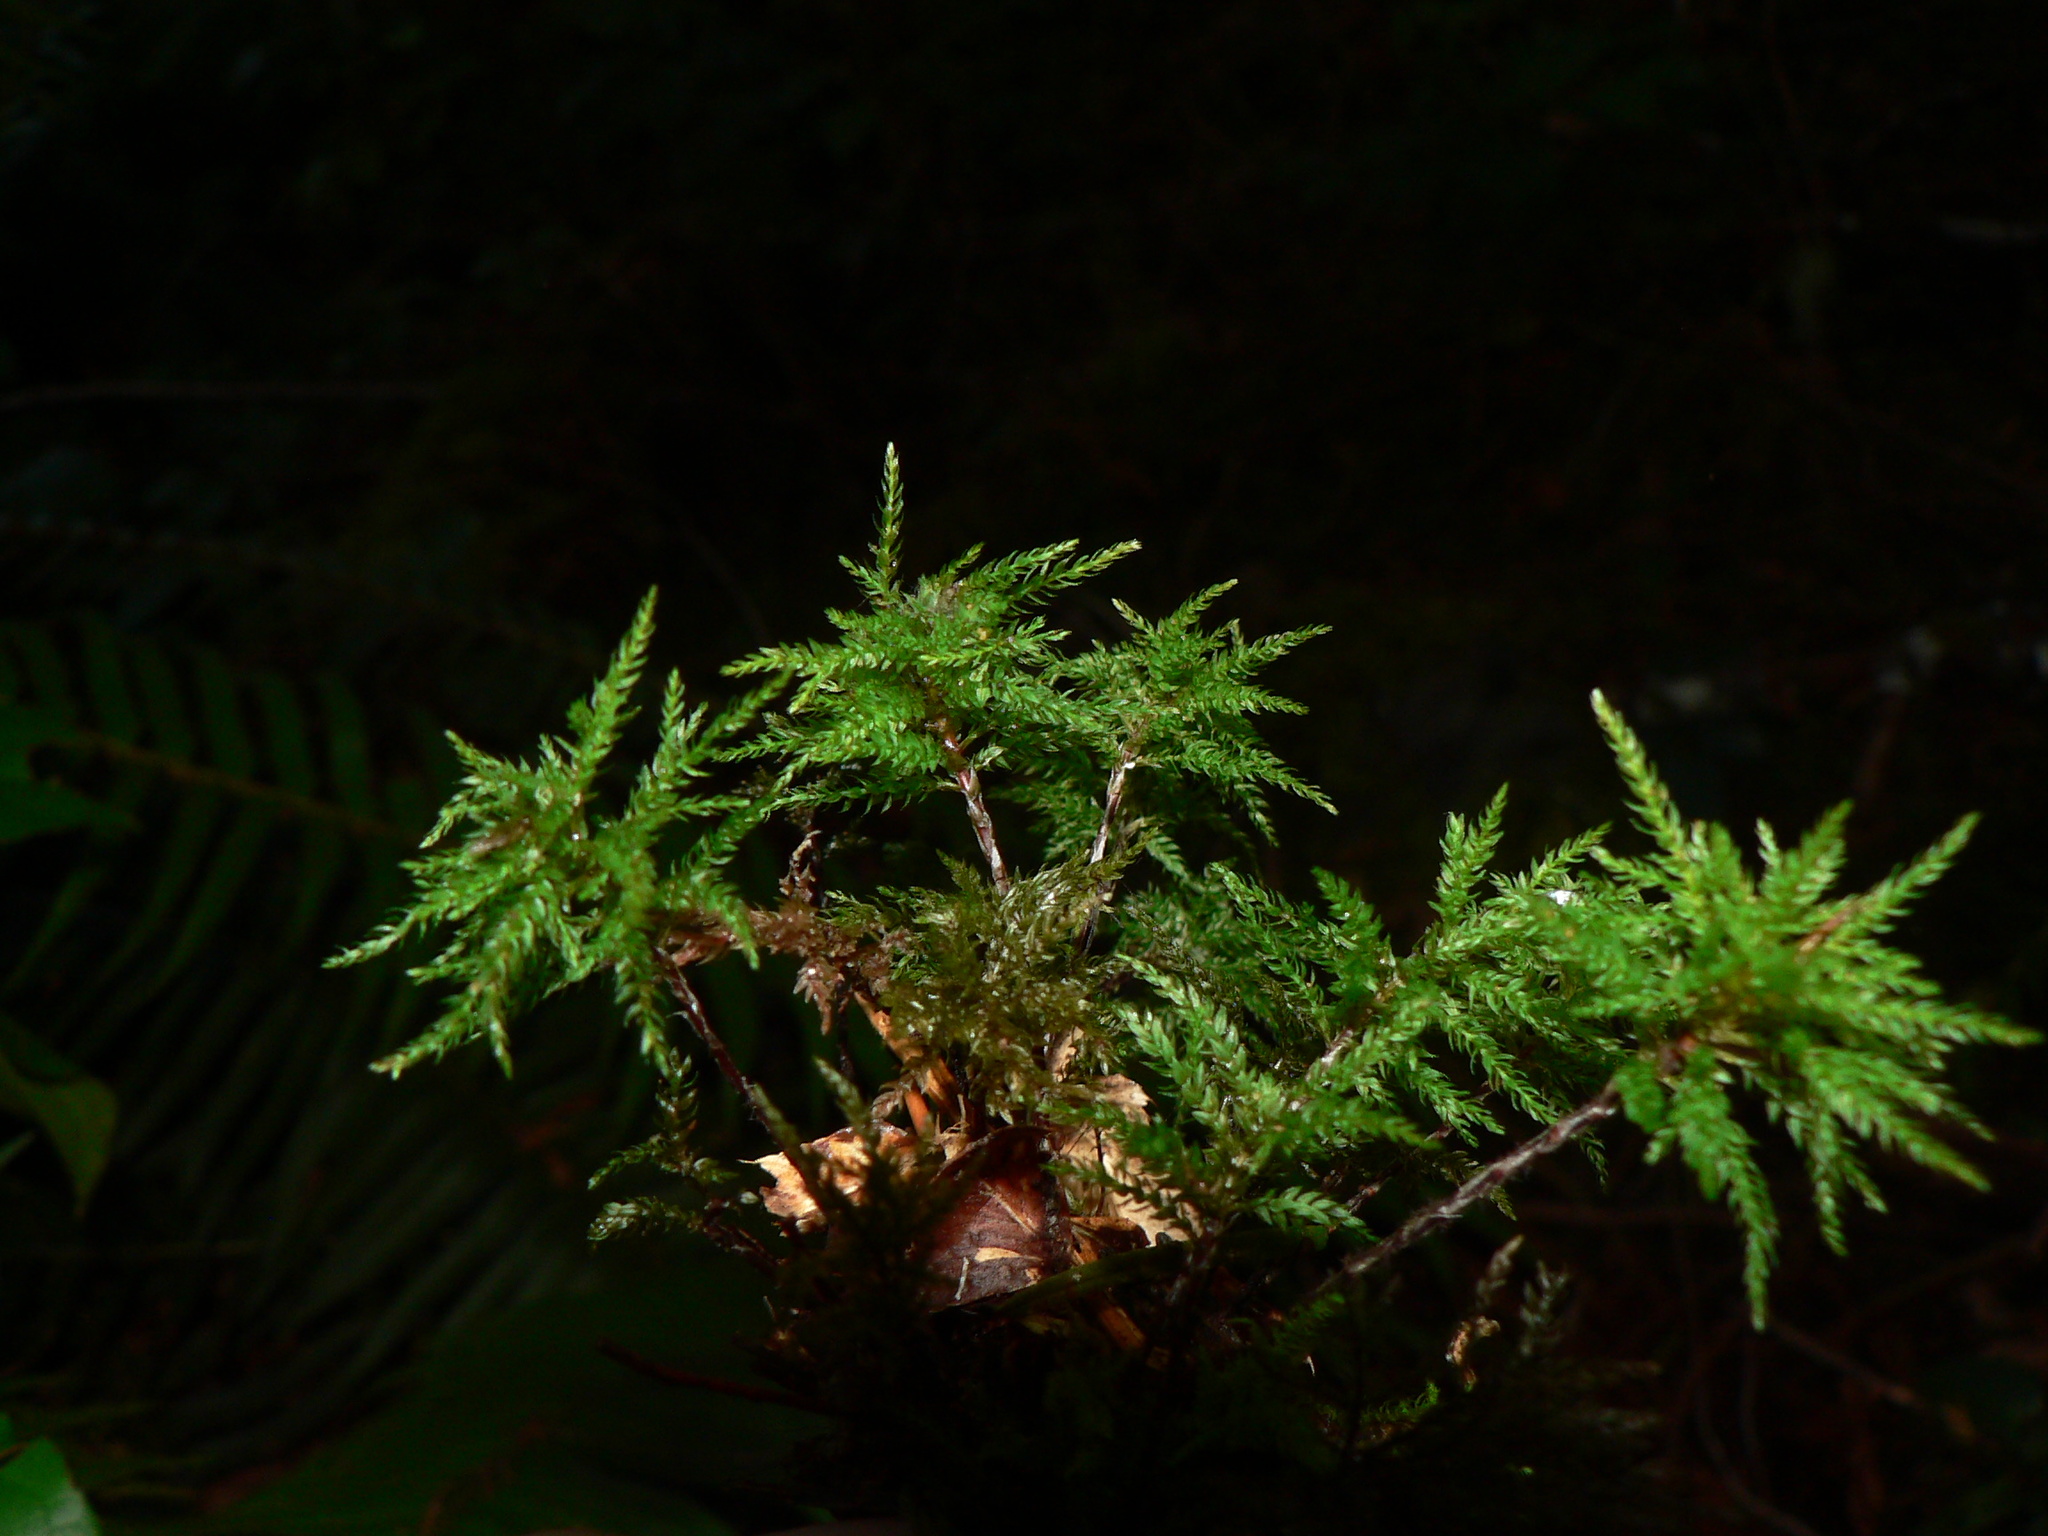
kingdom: Plantae
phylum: Bryophyta
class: Bryopsida
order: Bryales
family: Mniaceae
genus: Leucolepis
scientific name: Leucolepis acanthoneura
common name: Leucolepis umbrella moss
